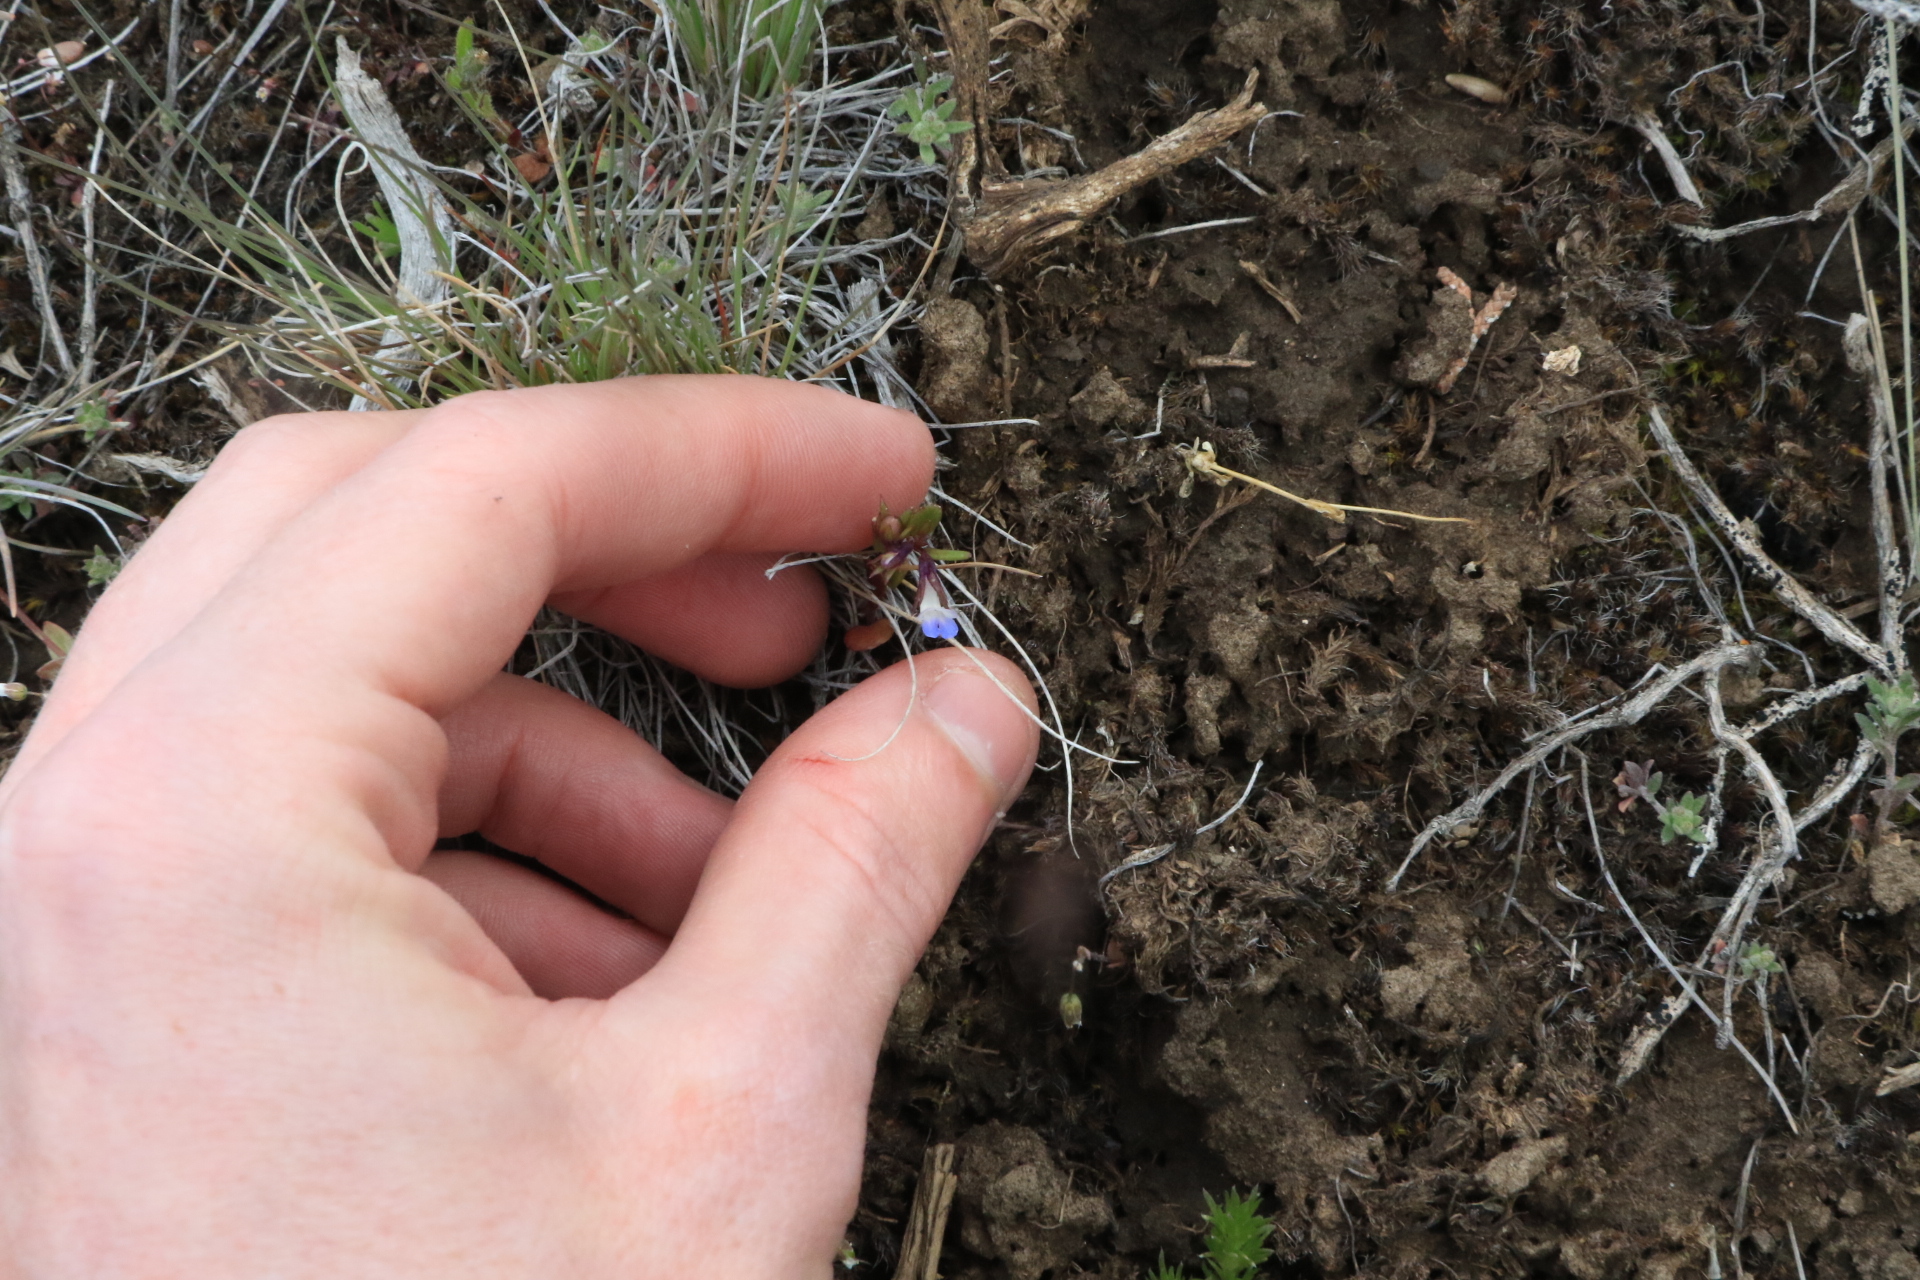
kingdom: Plantae
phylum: Tracheophyta
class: Magnoliopsida
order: Lamiales
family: Plantaginaceae
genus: Collinsia
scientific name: Collinsia parviflora
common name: Blue-lips
